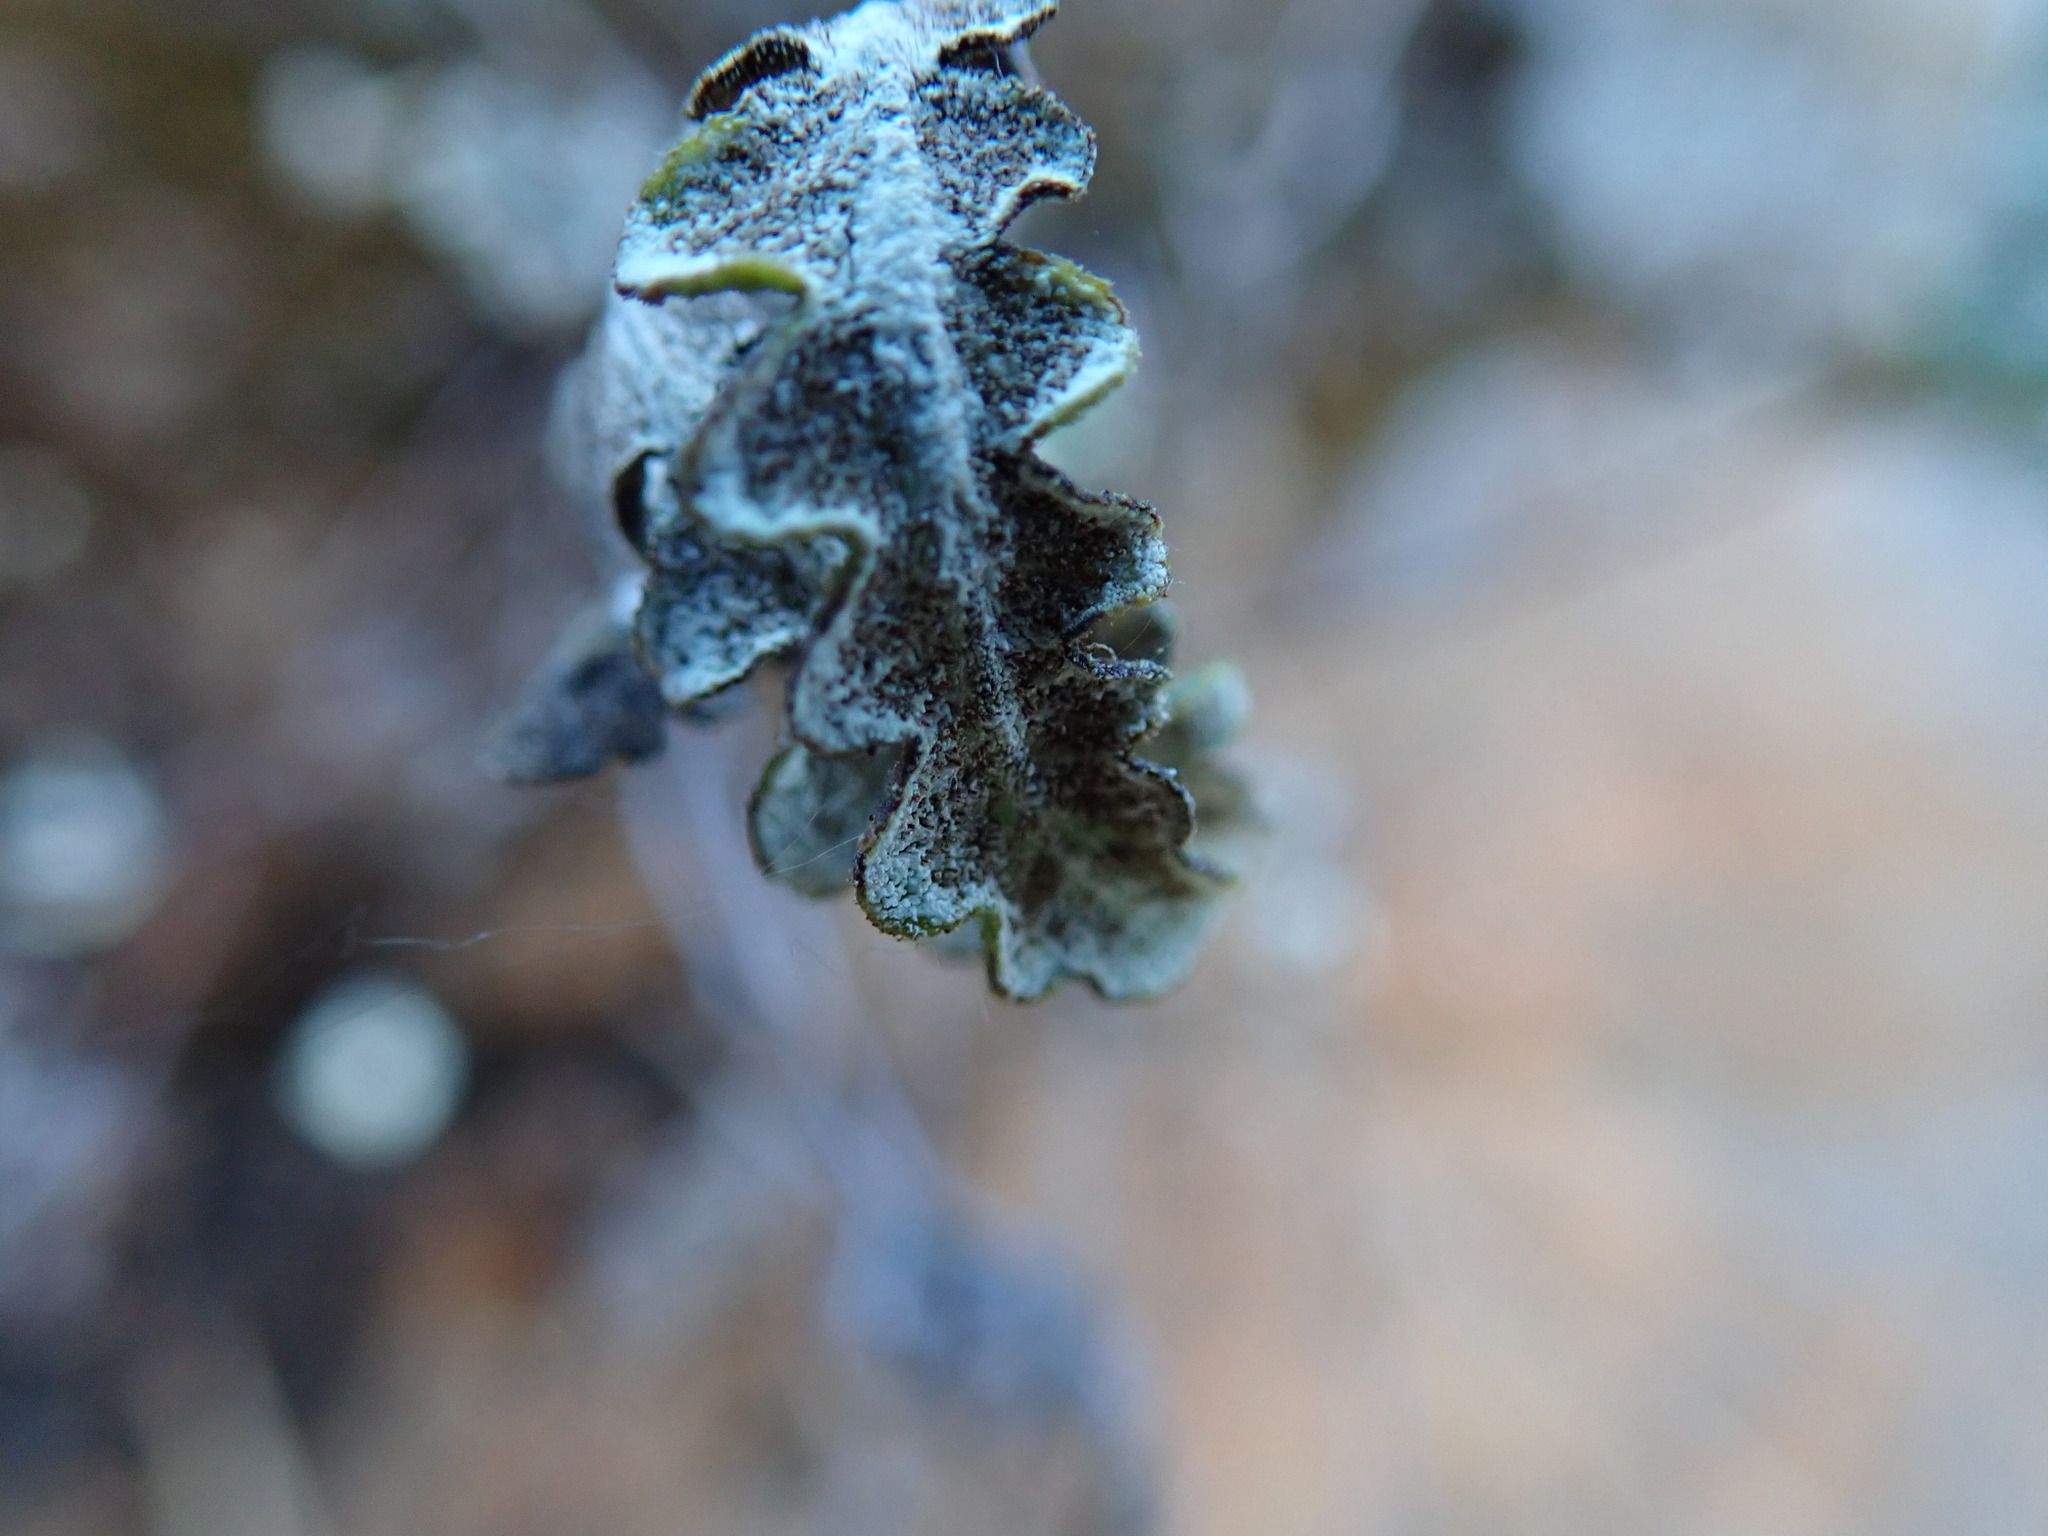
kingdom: Plantae
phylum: Tracheophyta
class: Polypodiopsida
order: Polypodiales
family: Pteridaceae
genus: Pentagramma
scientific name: Pentagramma glanduloviscida
